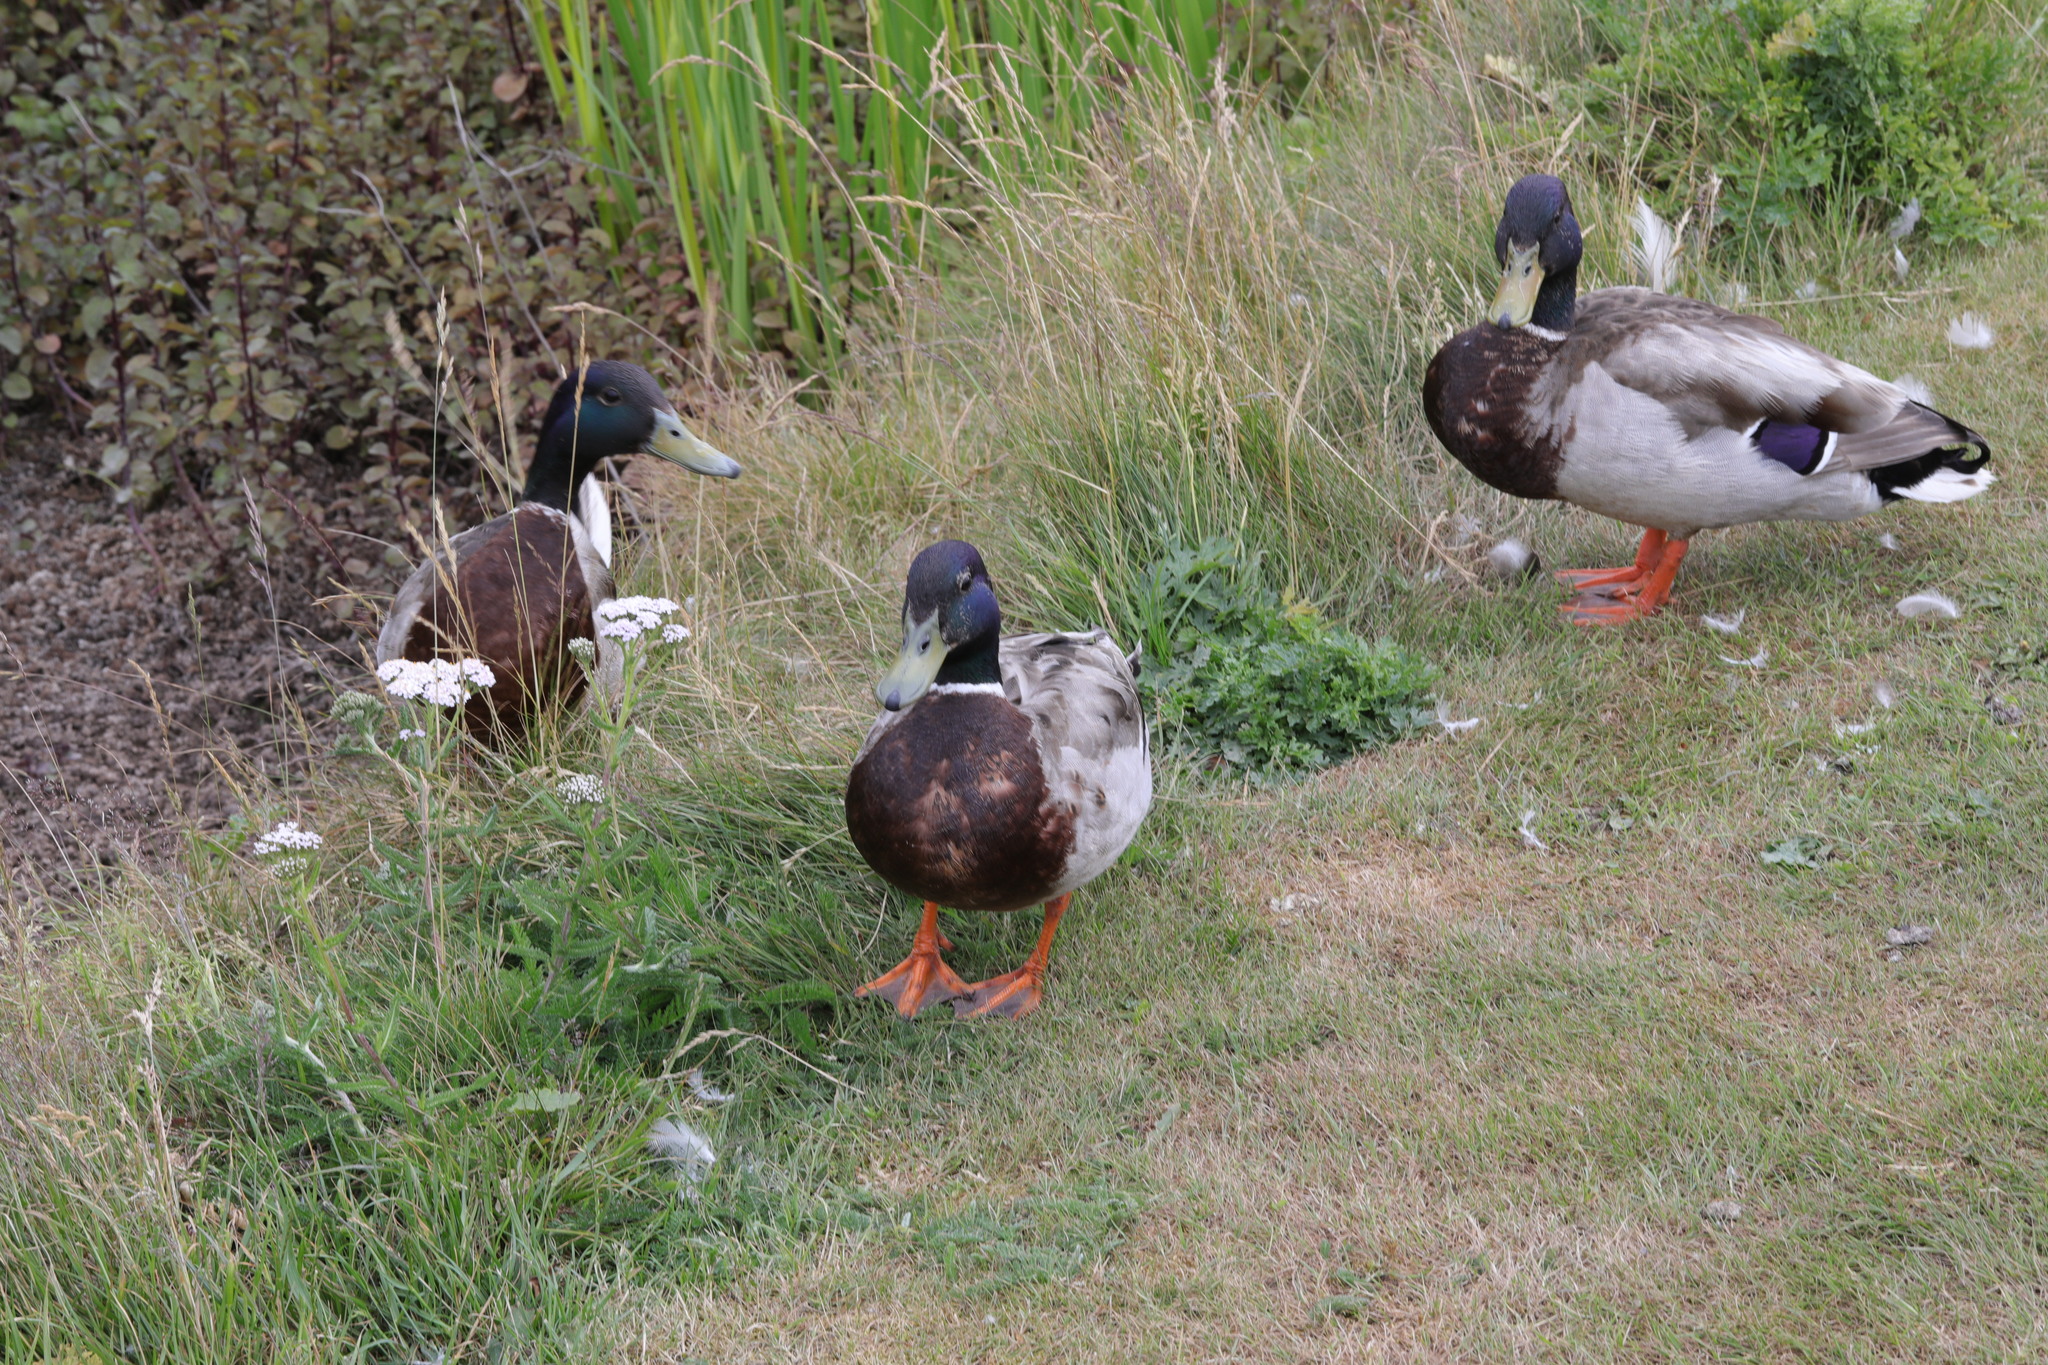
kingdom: Animalia
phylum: Chordata
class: Aves
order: Anseriformes
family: Anatidae
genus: Anas
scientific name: Anas platyrhynchos
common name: Mallard
